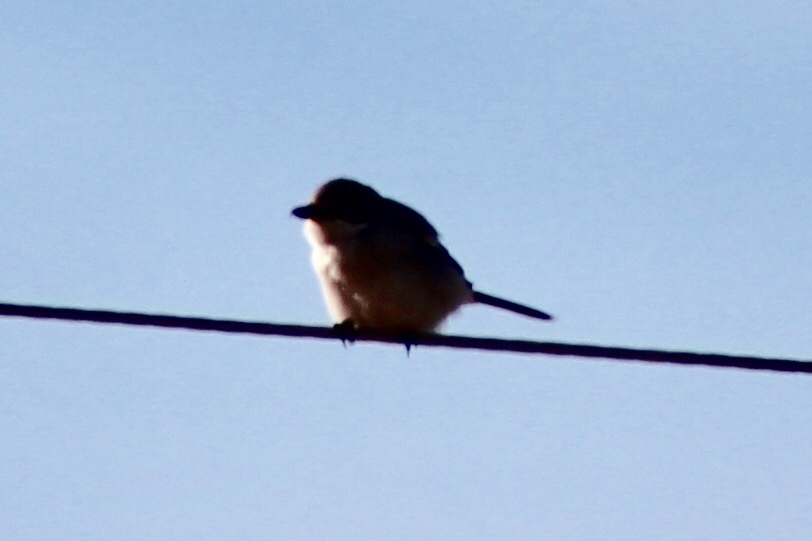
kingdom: Animalia
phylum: Chordata
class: Aves
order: Passeriformes
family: Laniidae
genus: Lanius
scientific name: Lanius ludovicianus
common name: Loggerhead shrike
